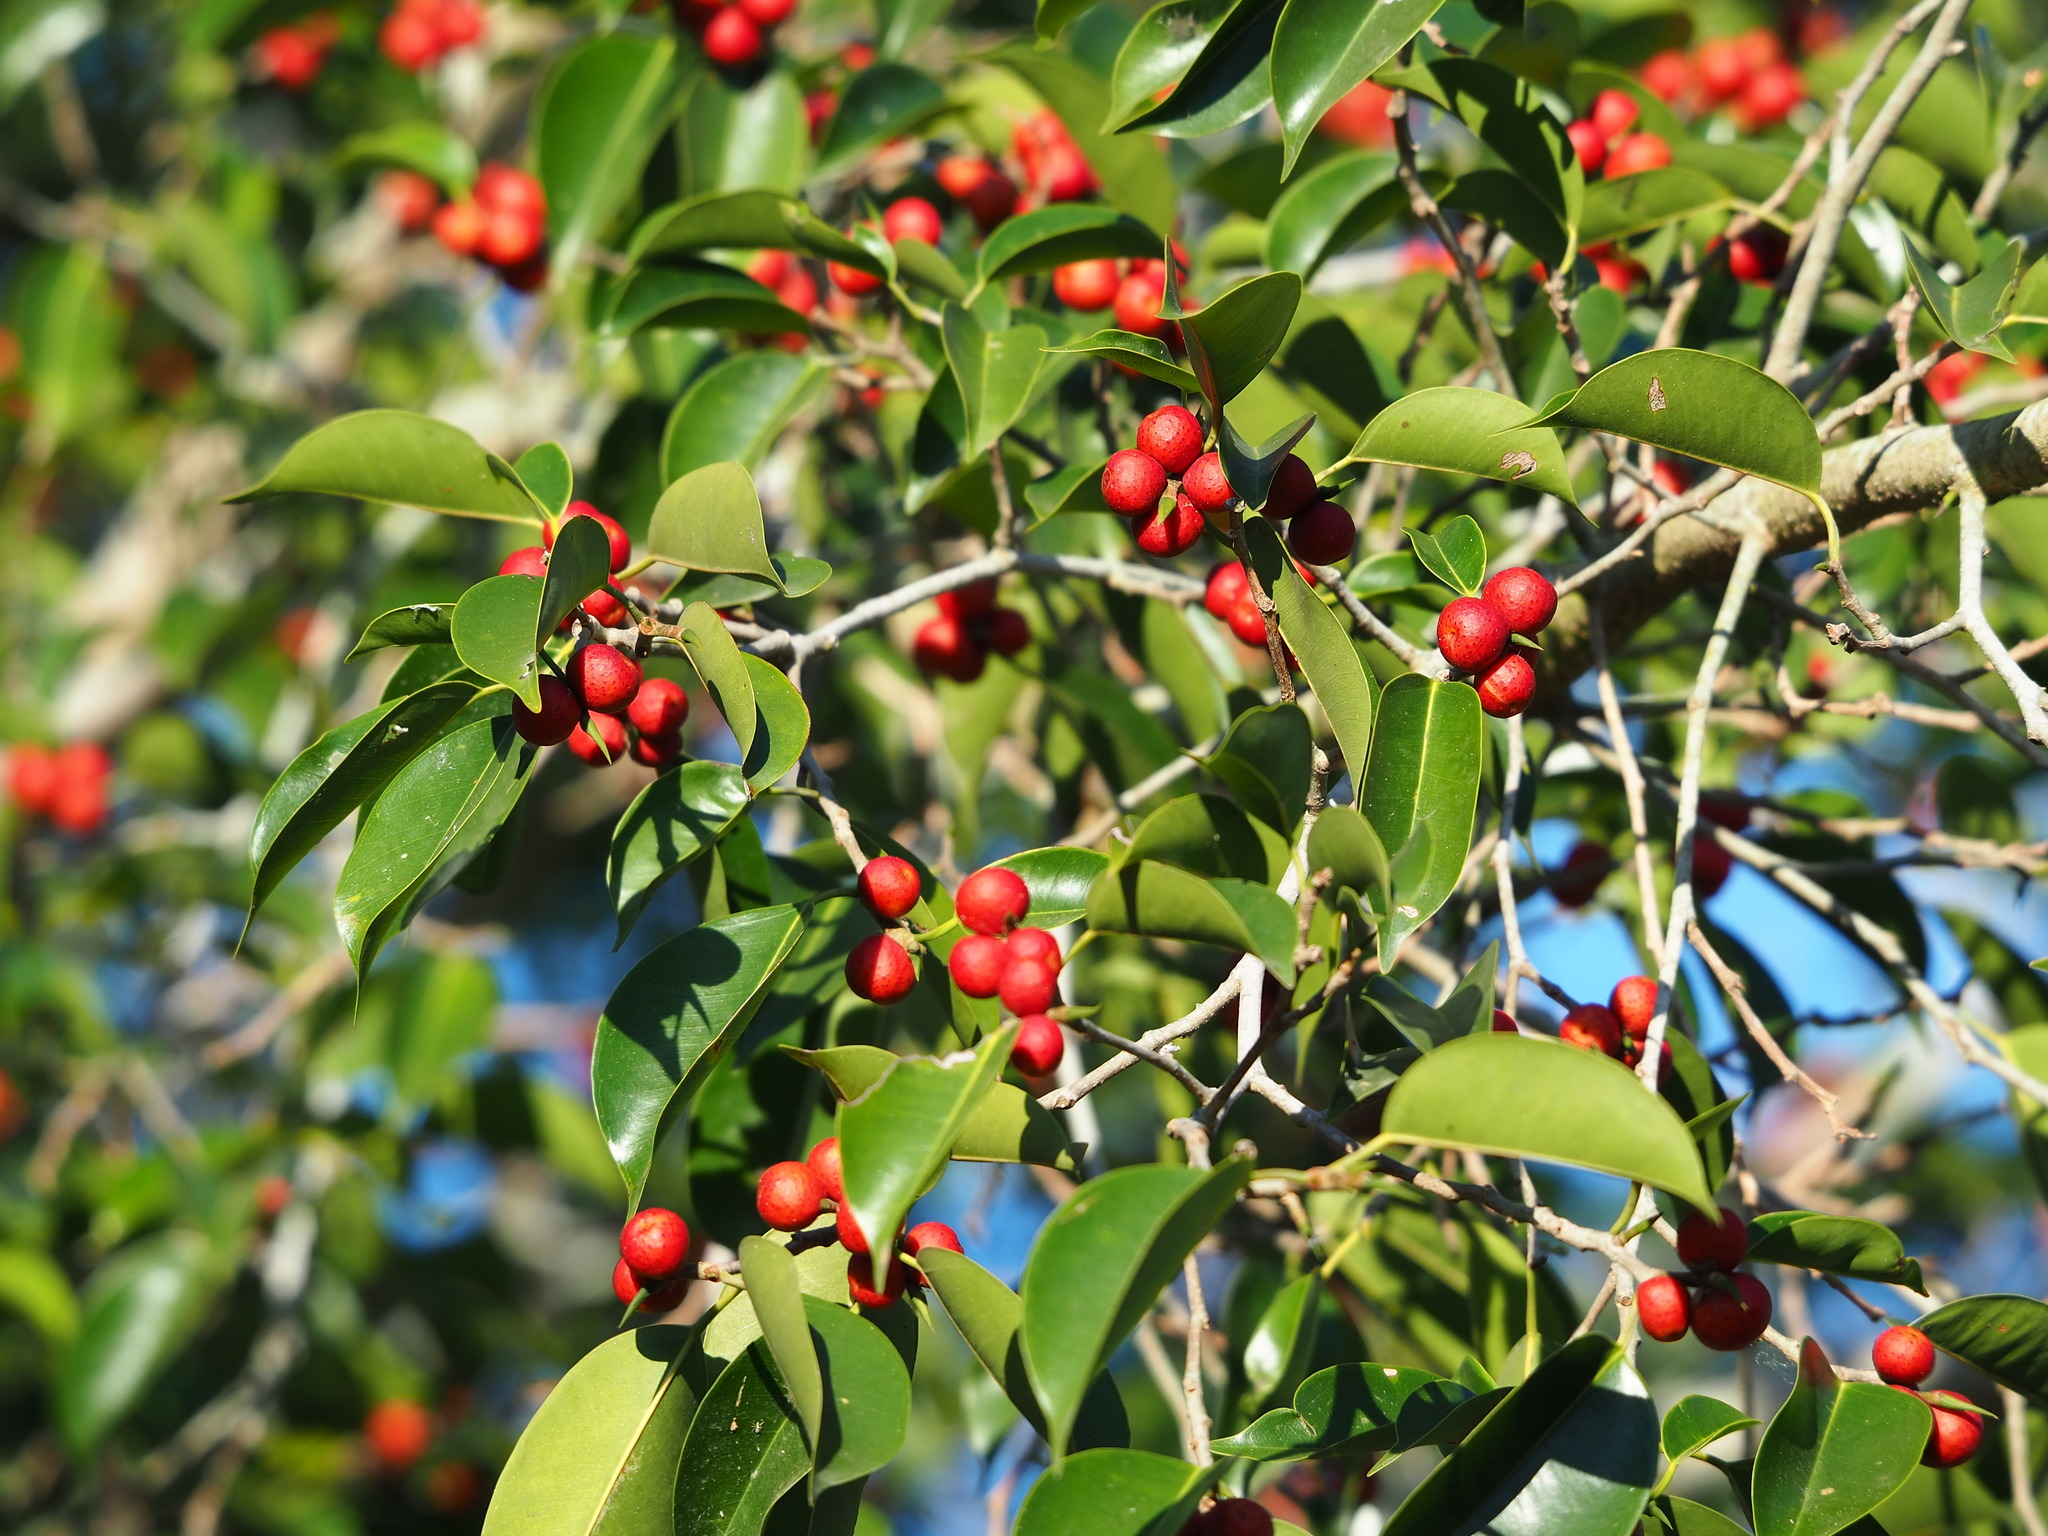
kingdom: Plantae
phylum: Tracheophyta
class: Magnoliopsida
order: Rosales
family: Moraceae
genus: Ficus
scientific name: Ficus benjamina
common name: Weeping fig
